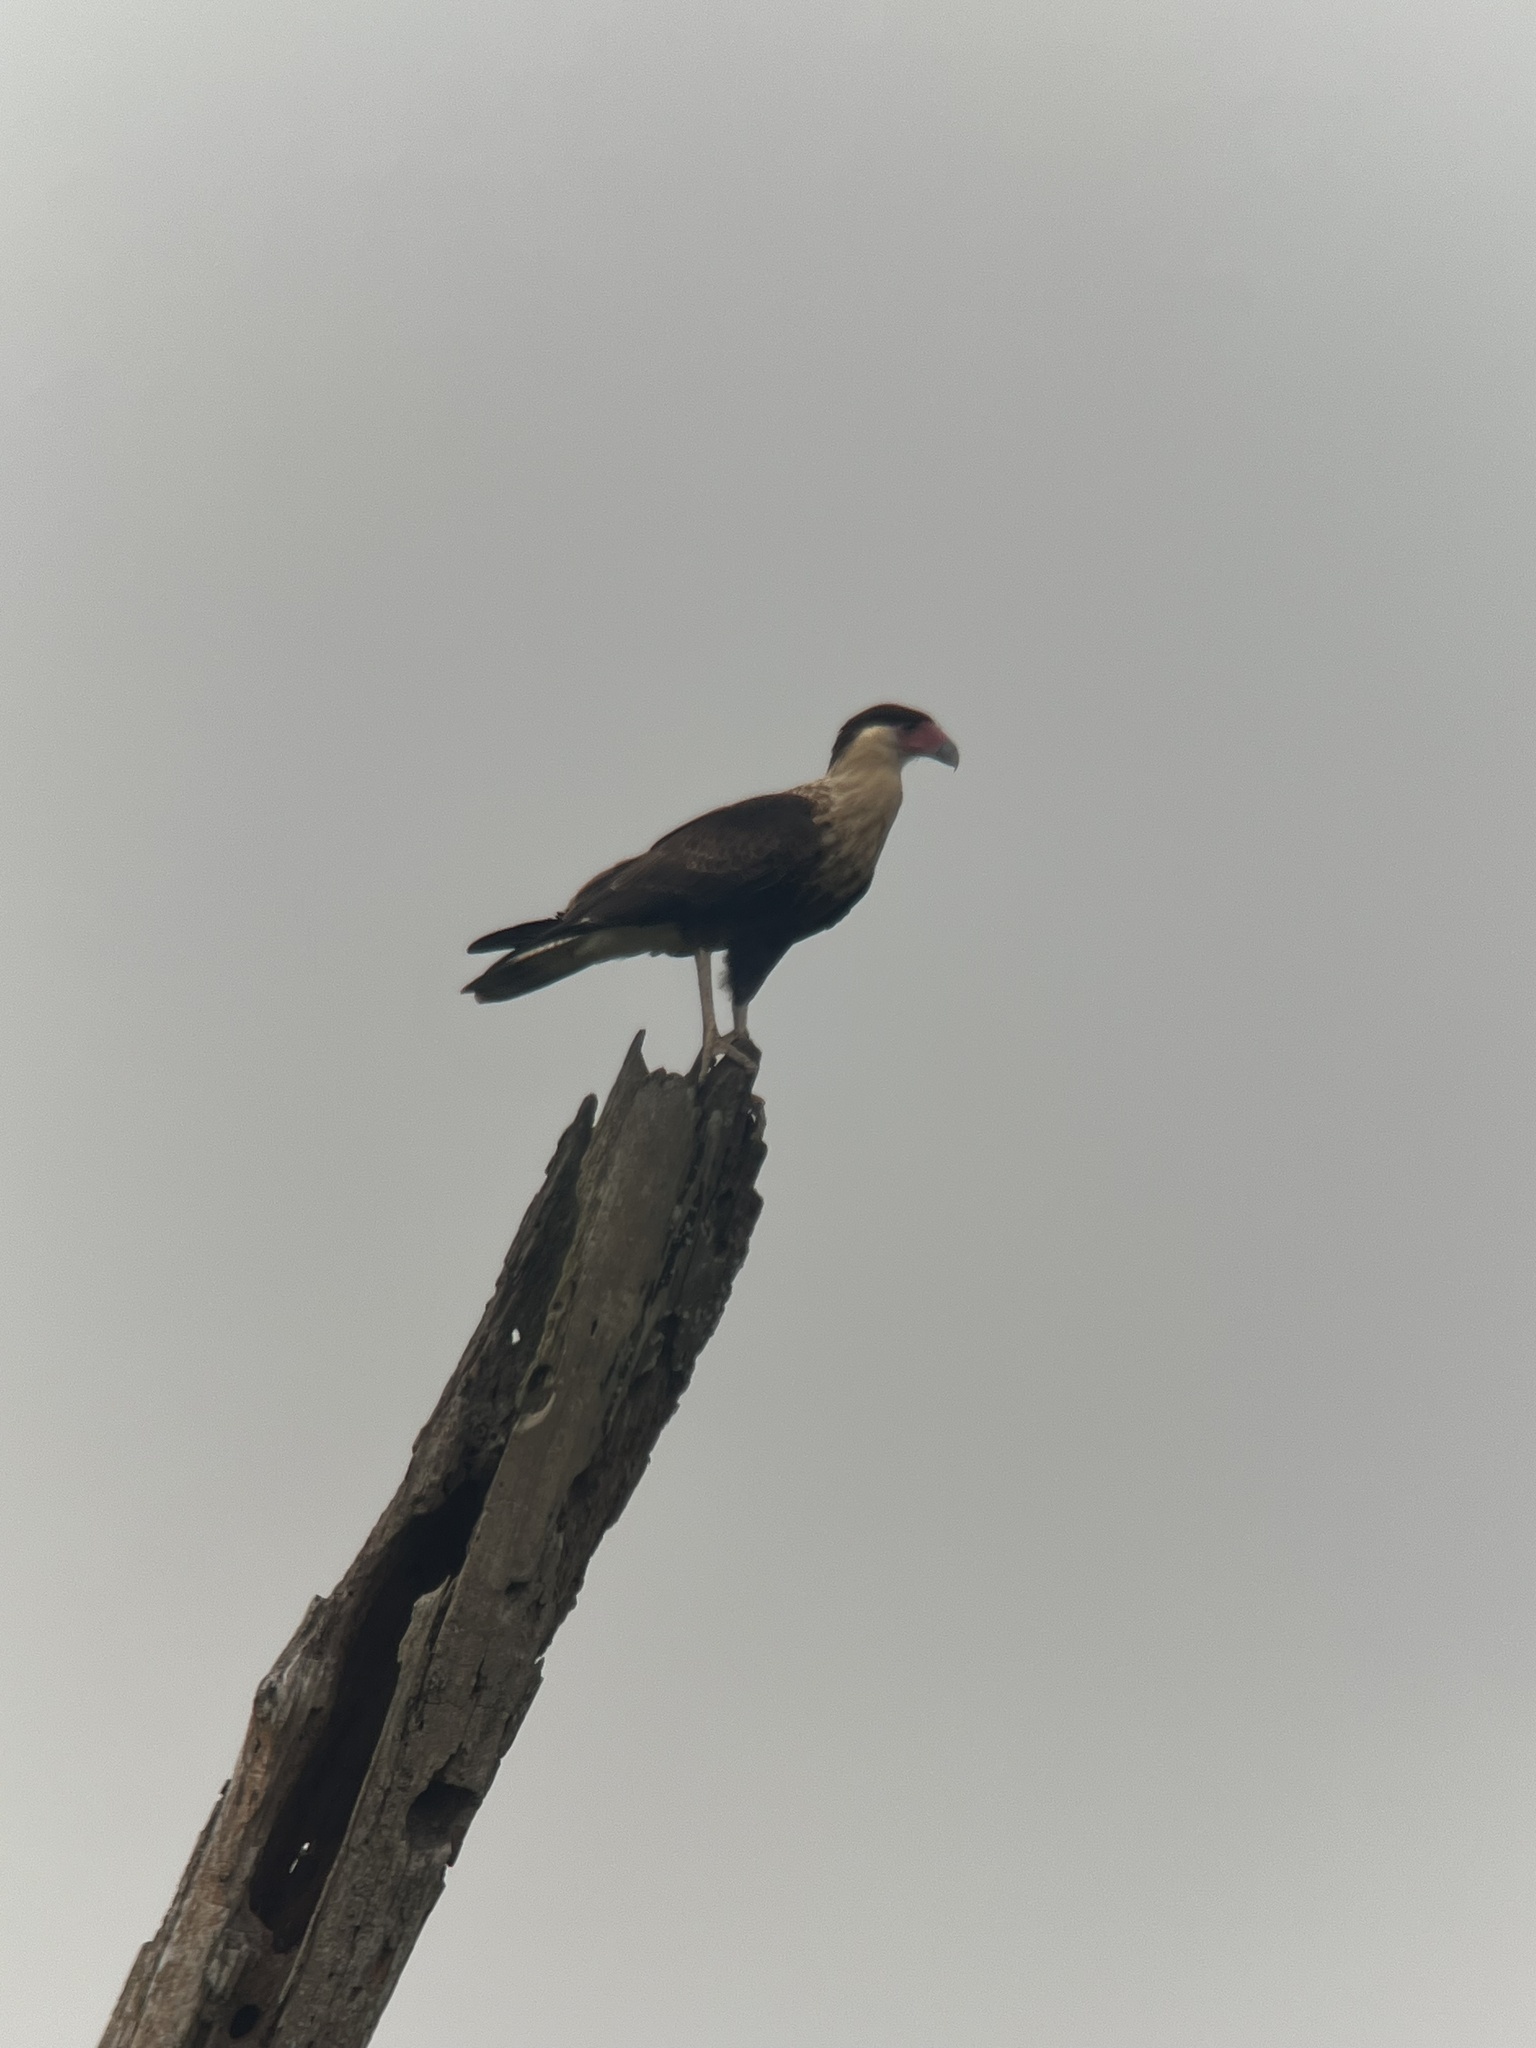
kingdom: Animalia
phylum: Chordata
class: Aves
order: Falconiformes
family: Falconidae
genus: Caracara
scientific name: Caracara plancus
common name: Southern caracara
